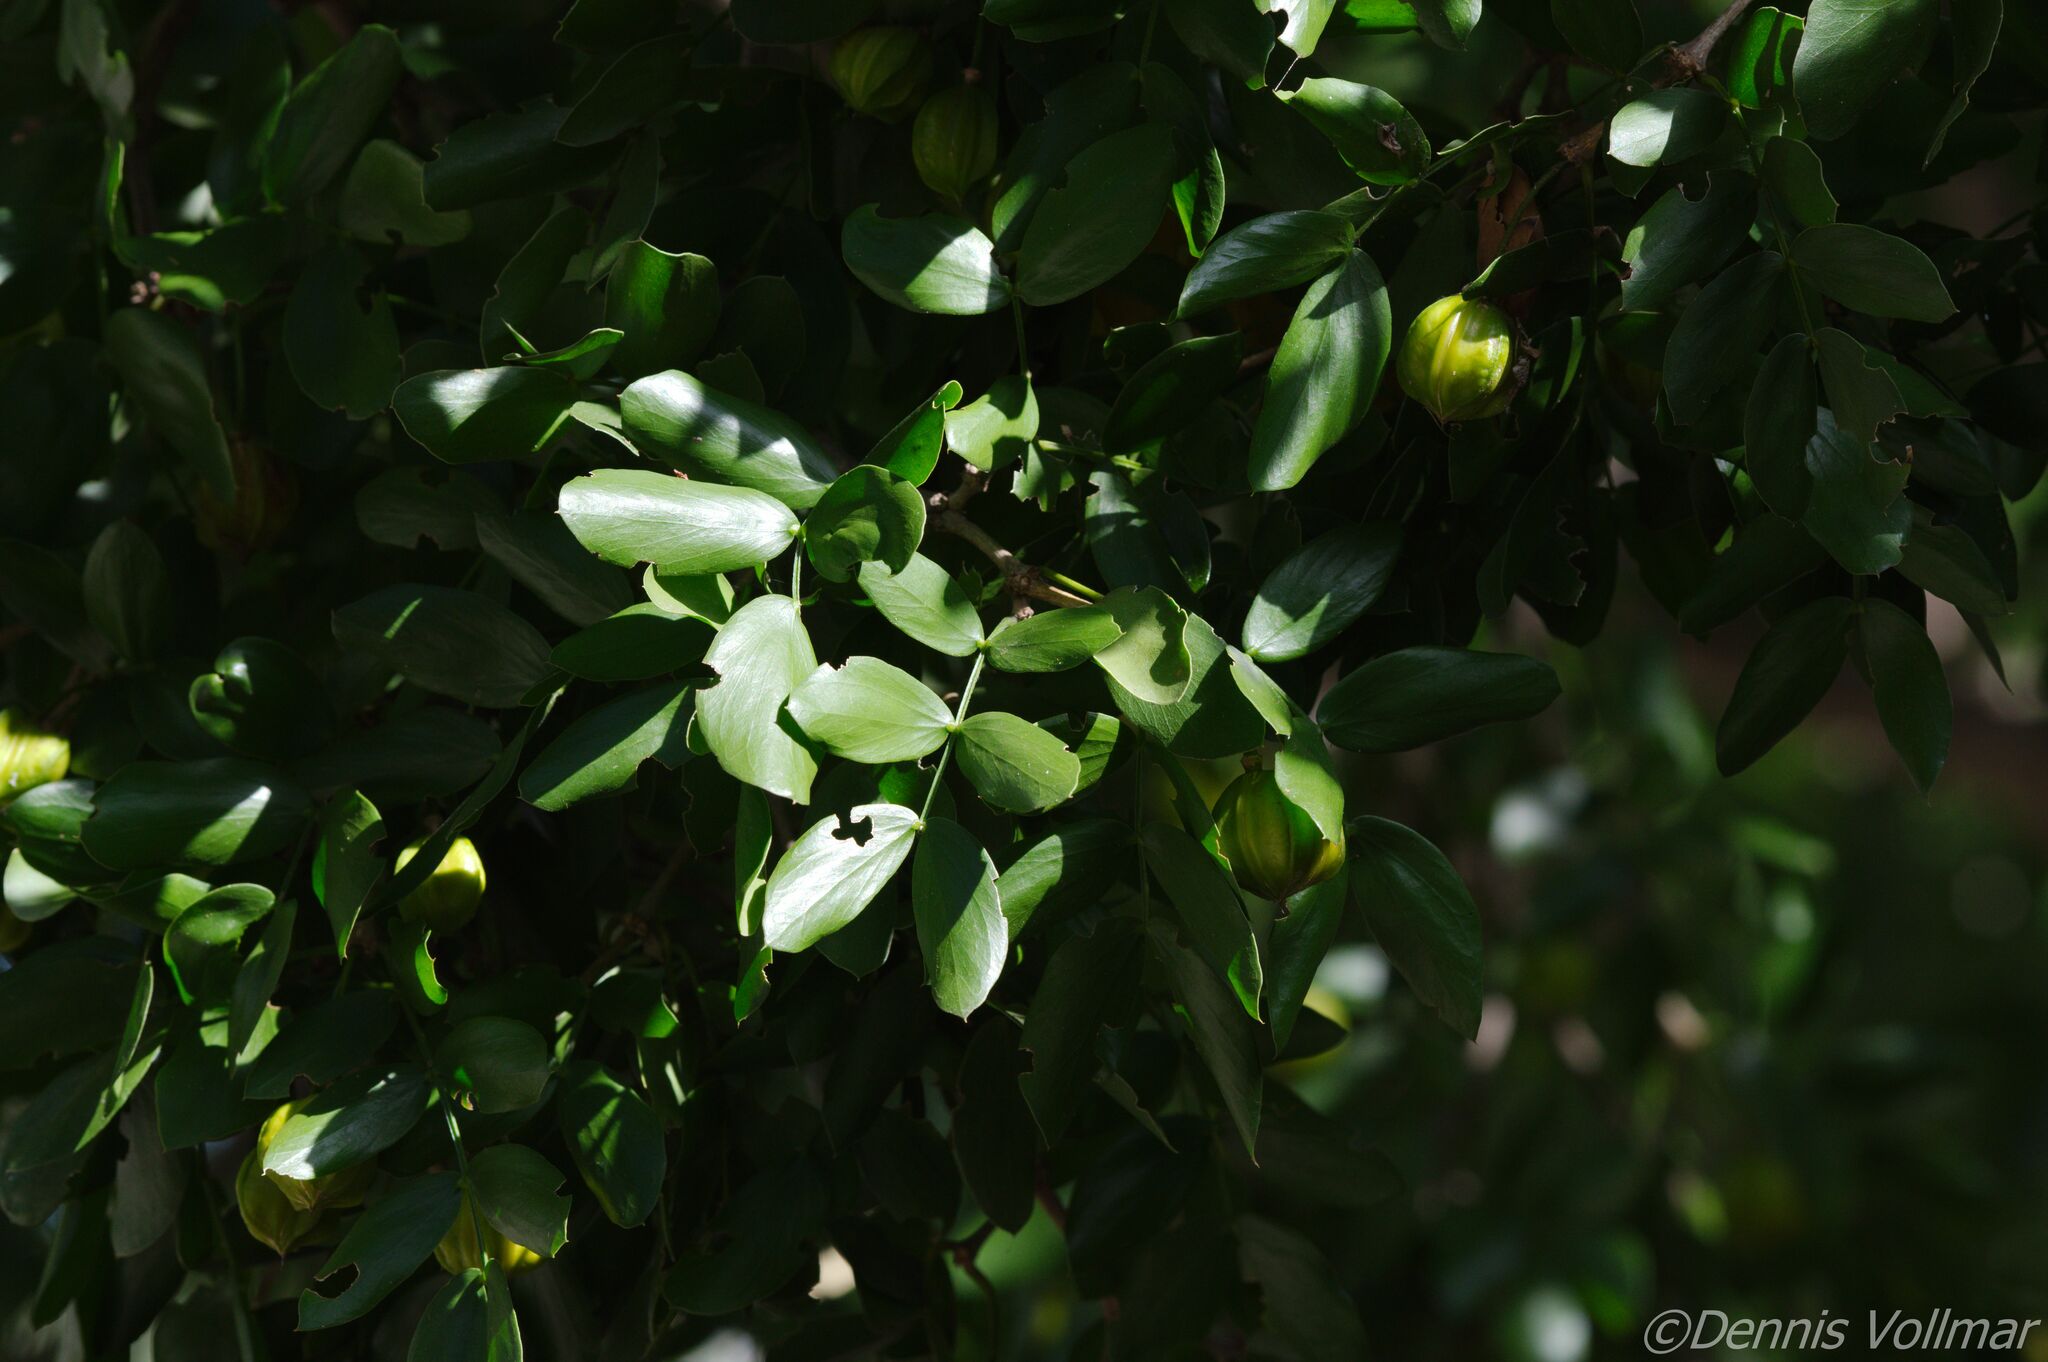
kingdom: Plantae
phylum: Tracheophyta
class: Magnoliopsida
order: Zygophyllales
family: Zygophyllaceae
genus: Guaiacum
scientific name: Guaiacum sanctum
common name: Holywood
